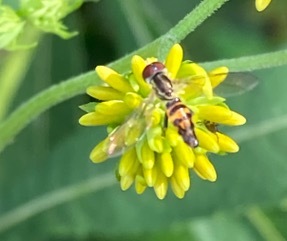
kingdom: Animalia
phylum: Arthropoda
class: Insecta
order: Diptera
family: Syrphidae
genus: Toxomerus
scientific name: Toxomerus geminatus
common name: Eastern calligrapher
